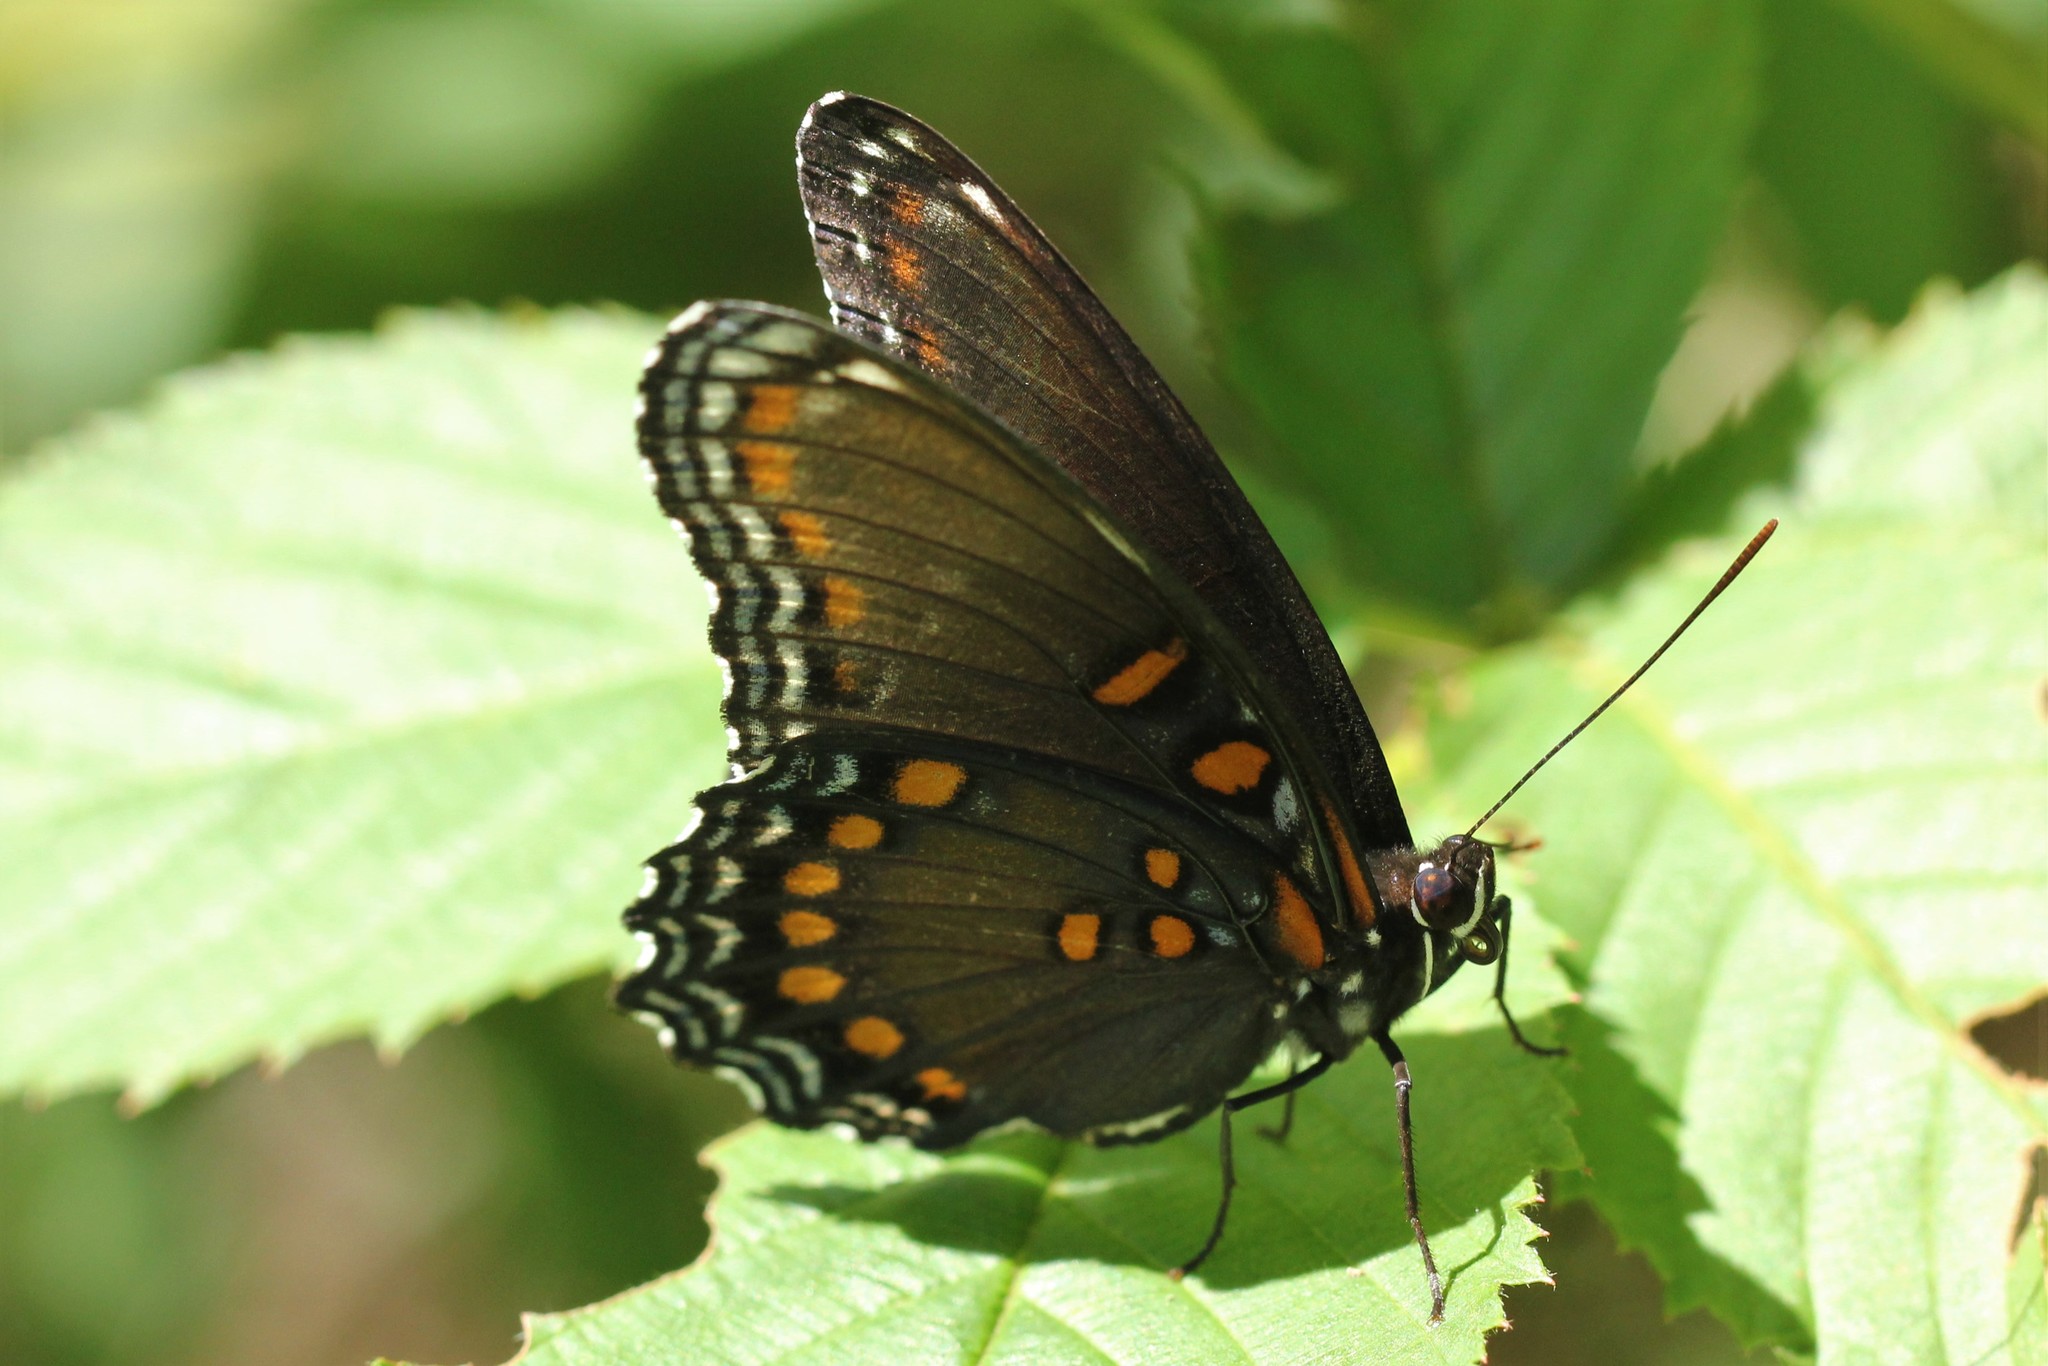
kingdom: Animalia
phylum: Arthropoda
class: Insecta
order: Lepidoptera
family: Nymphalidae
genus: Limenitis
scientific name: Limenitis astyanax
